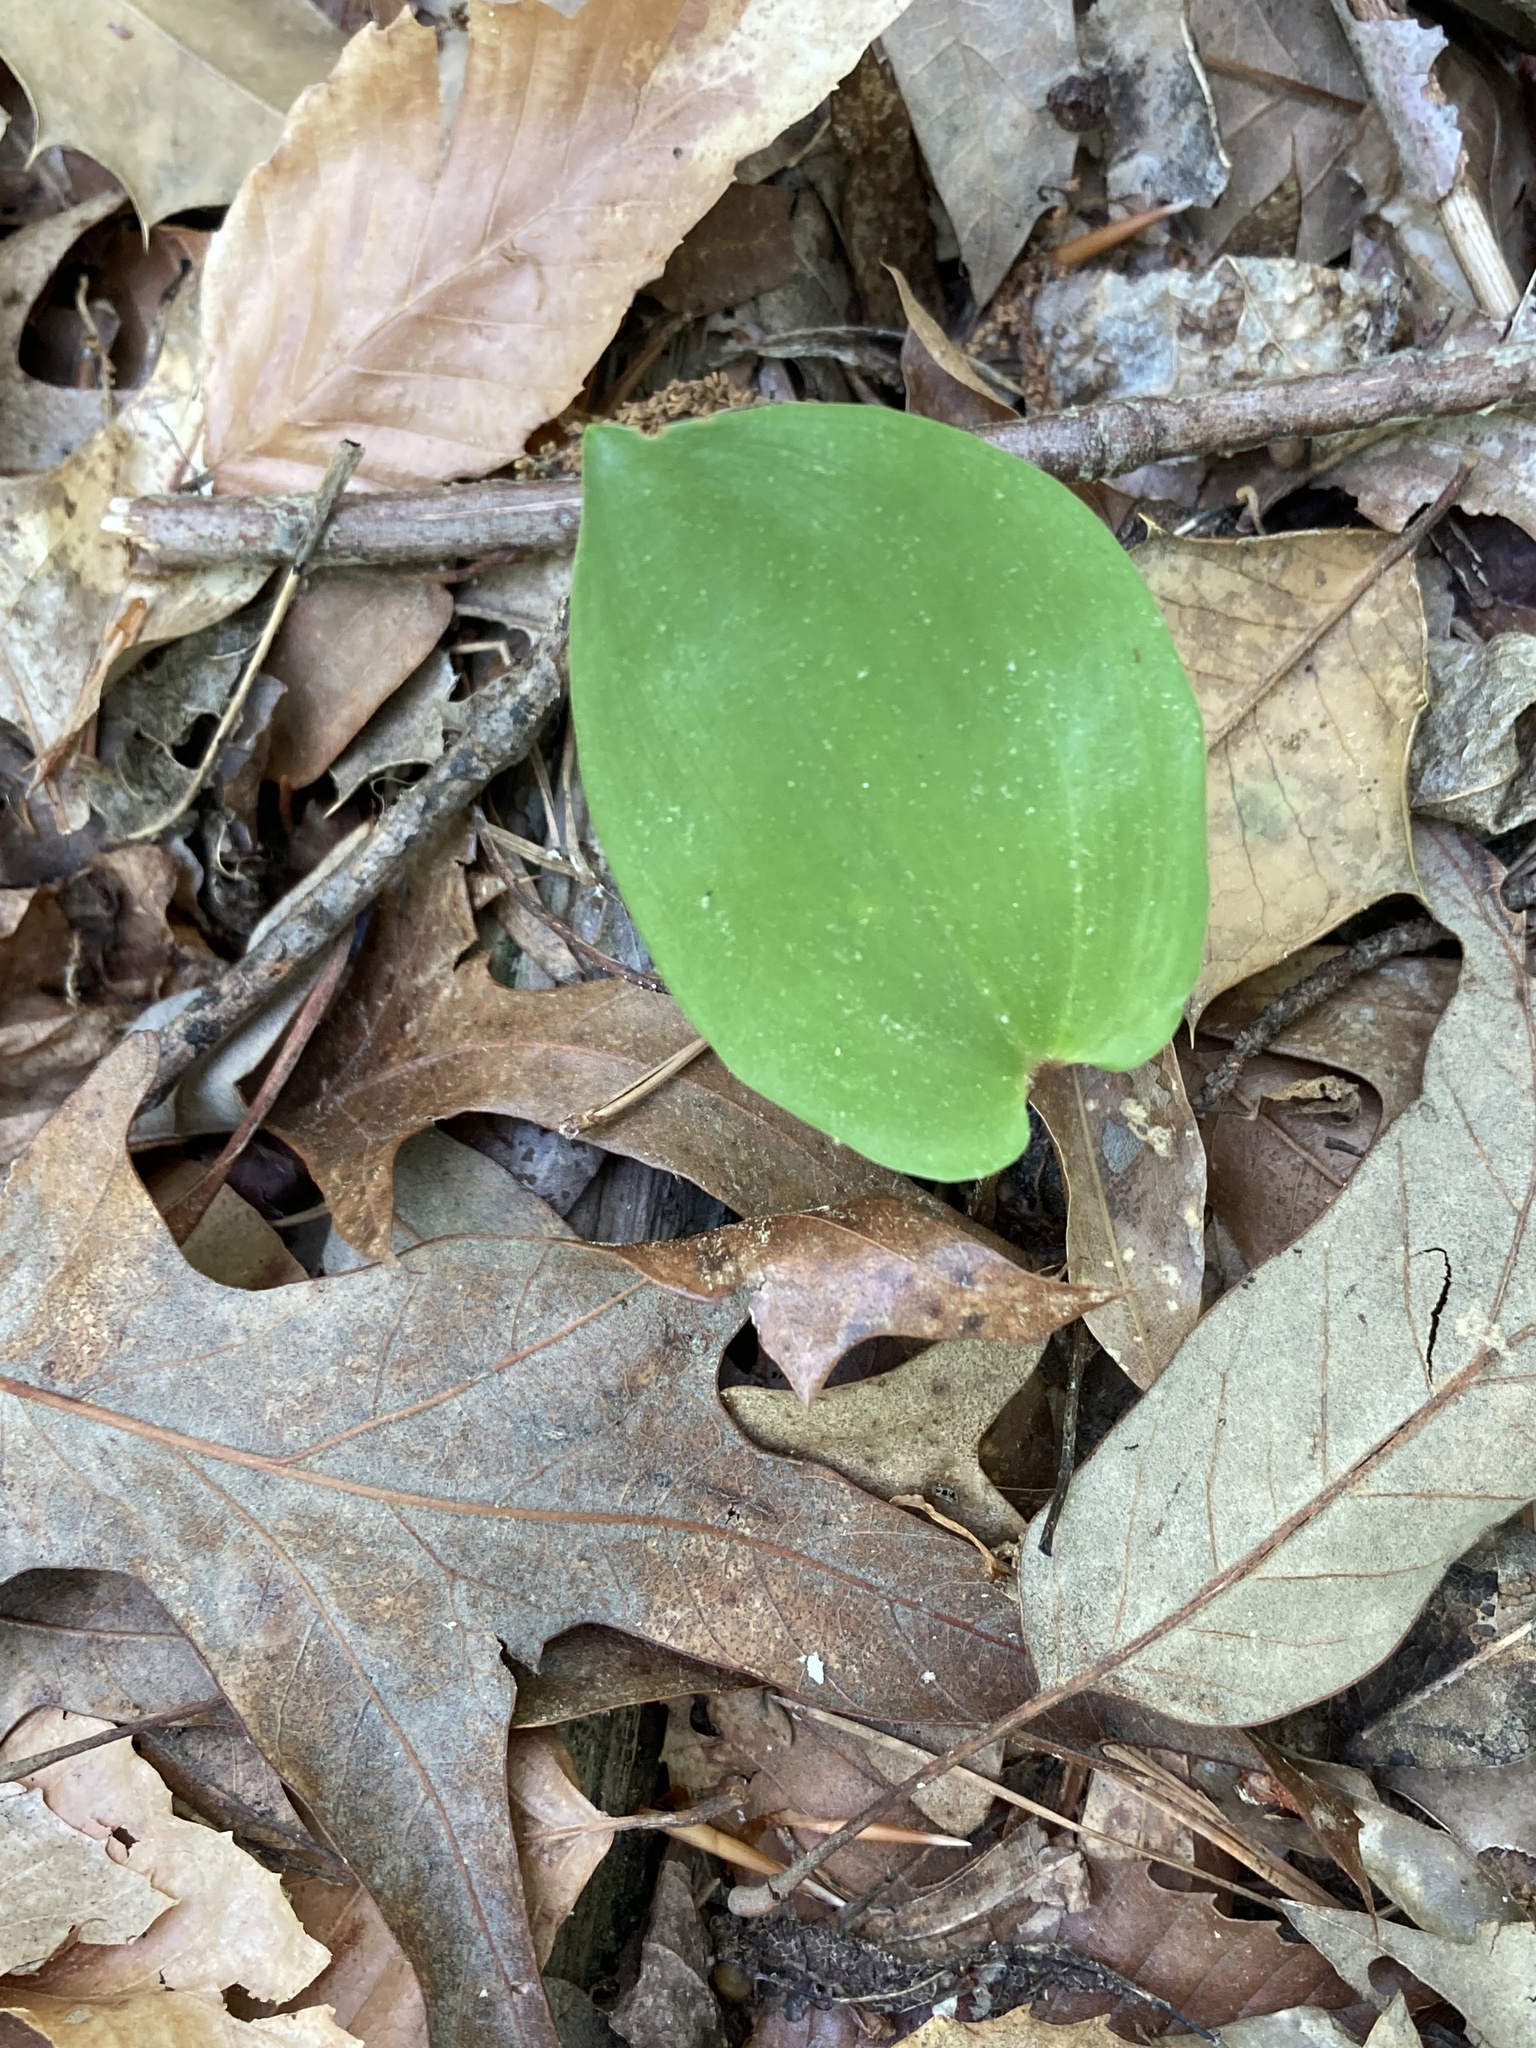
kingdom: Plantae
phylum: Tracheophyta
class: Liliopsida
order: Asparagales
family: Asparagaceae
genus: Maianthemum
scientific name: Maianthemum canadense
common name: False lily-of-the-valley
